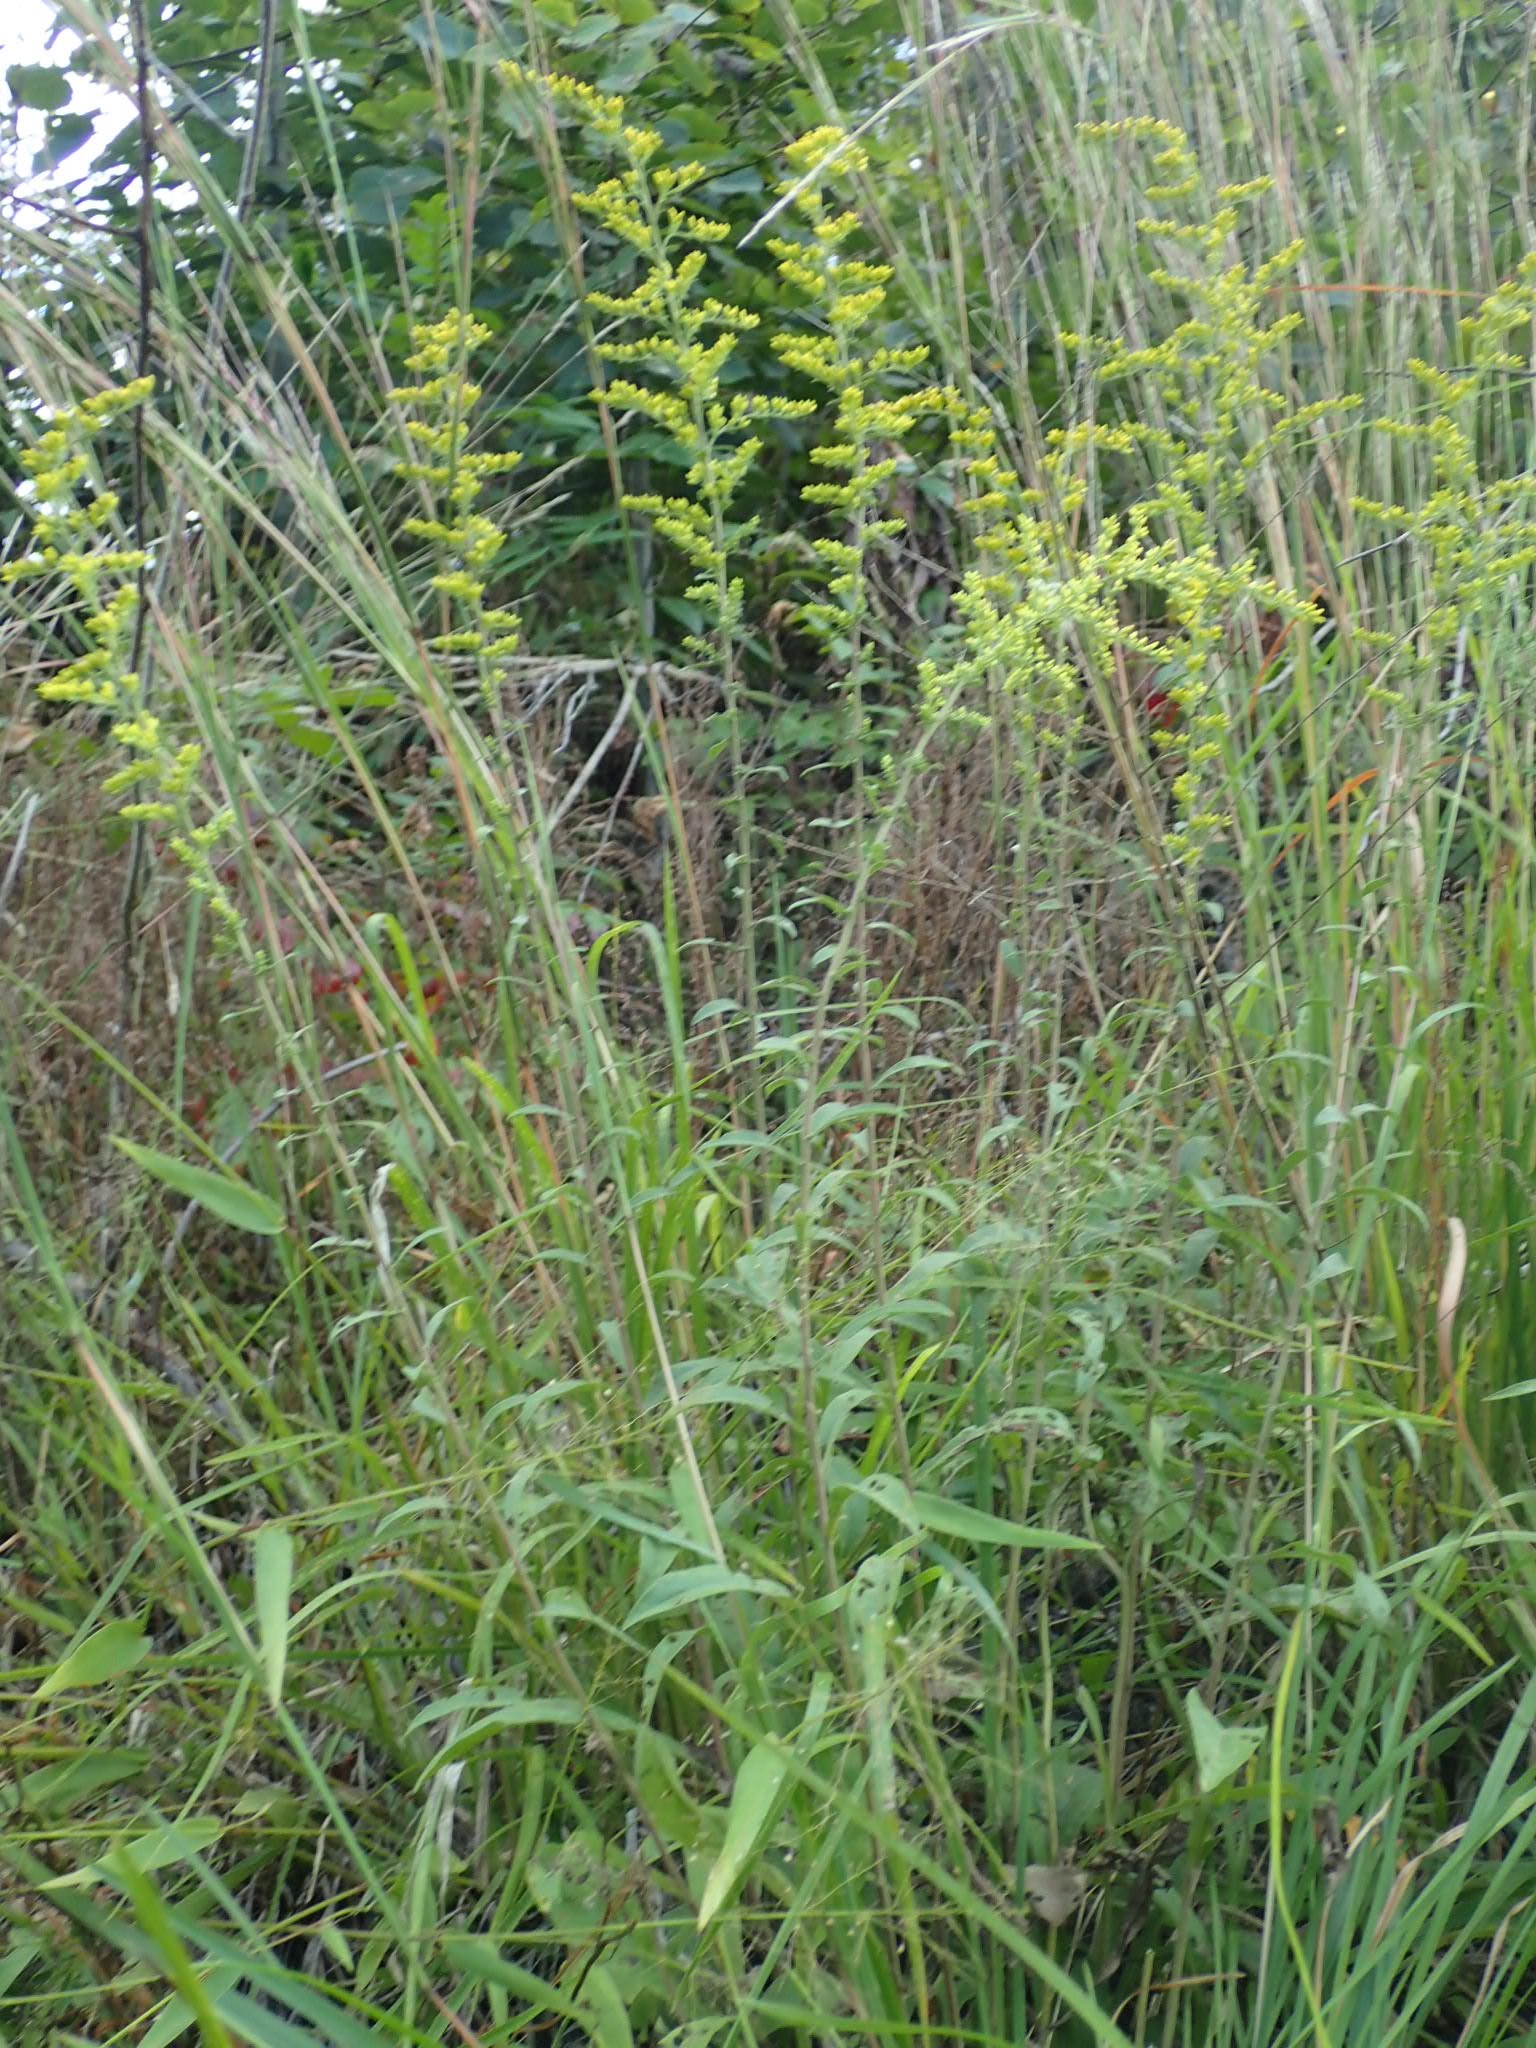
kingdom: Plantae
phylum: Tracheophyta
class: Magnoliopsida
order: Asterales
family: Asteraceae
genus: Solidago
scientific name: Solidago nemoralis
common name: Grey goldenrod
